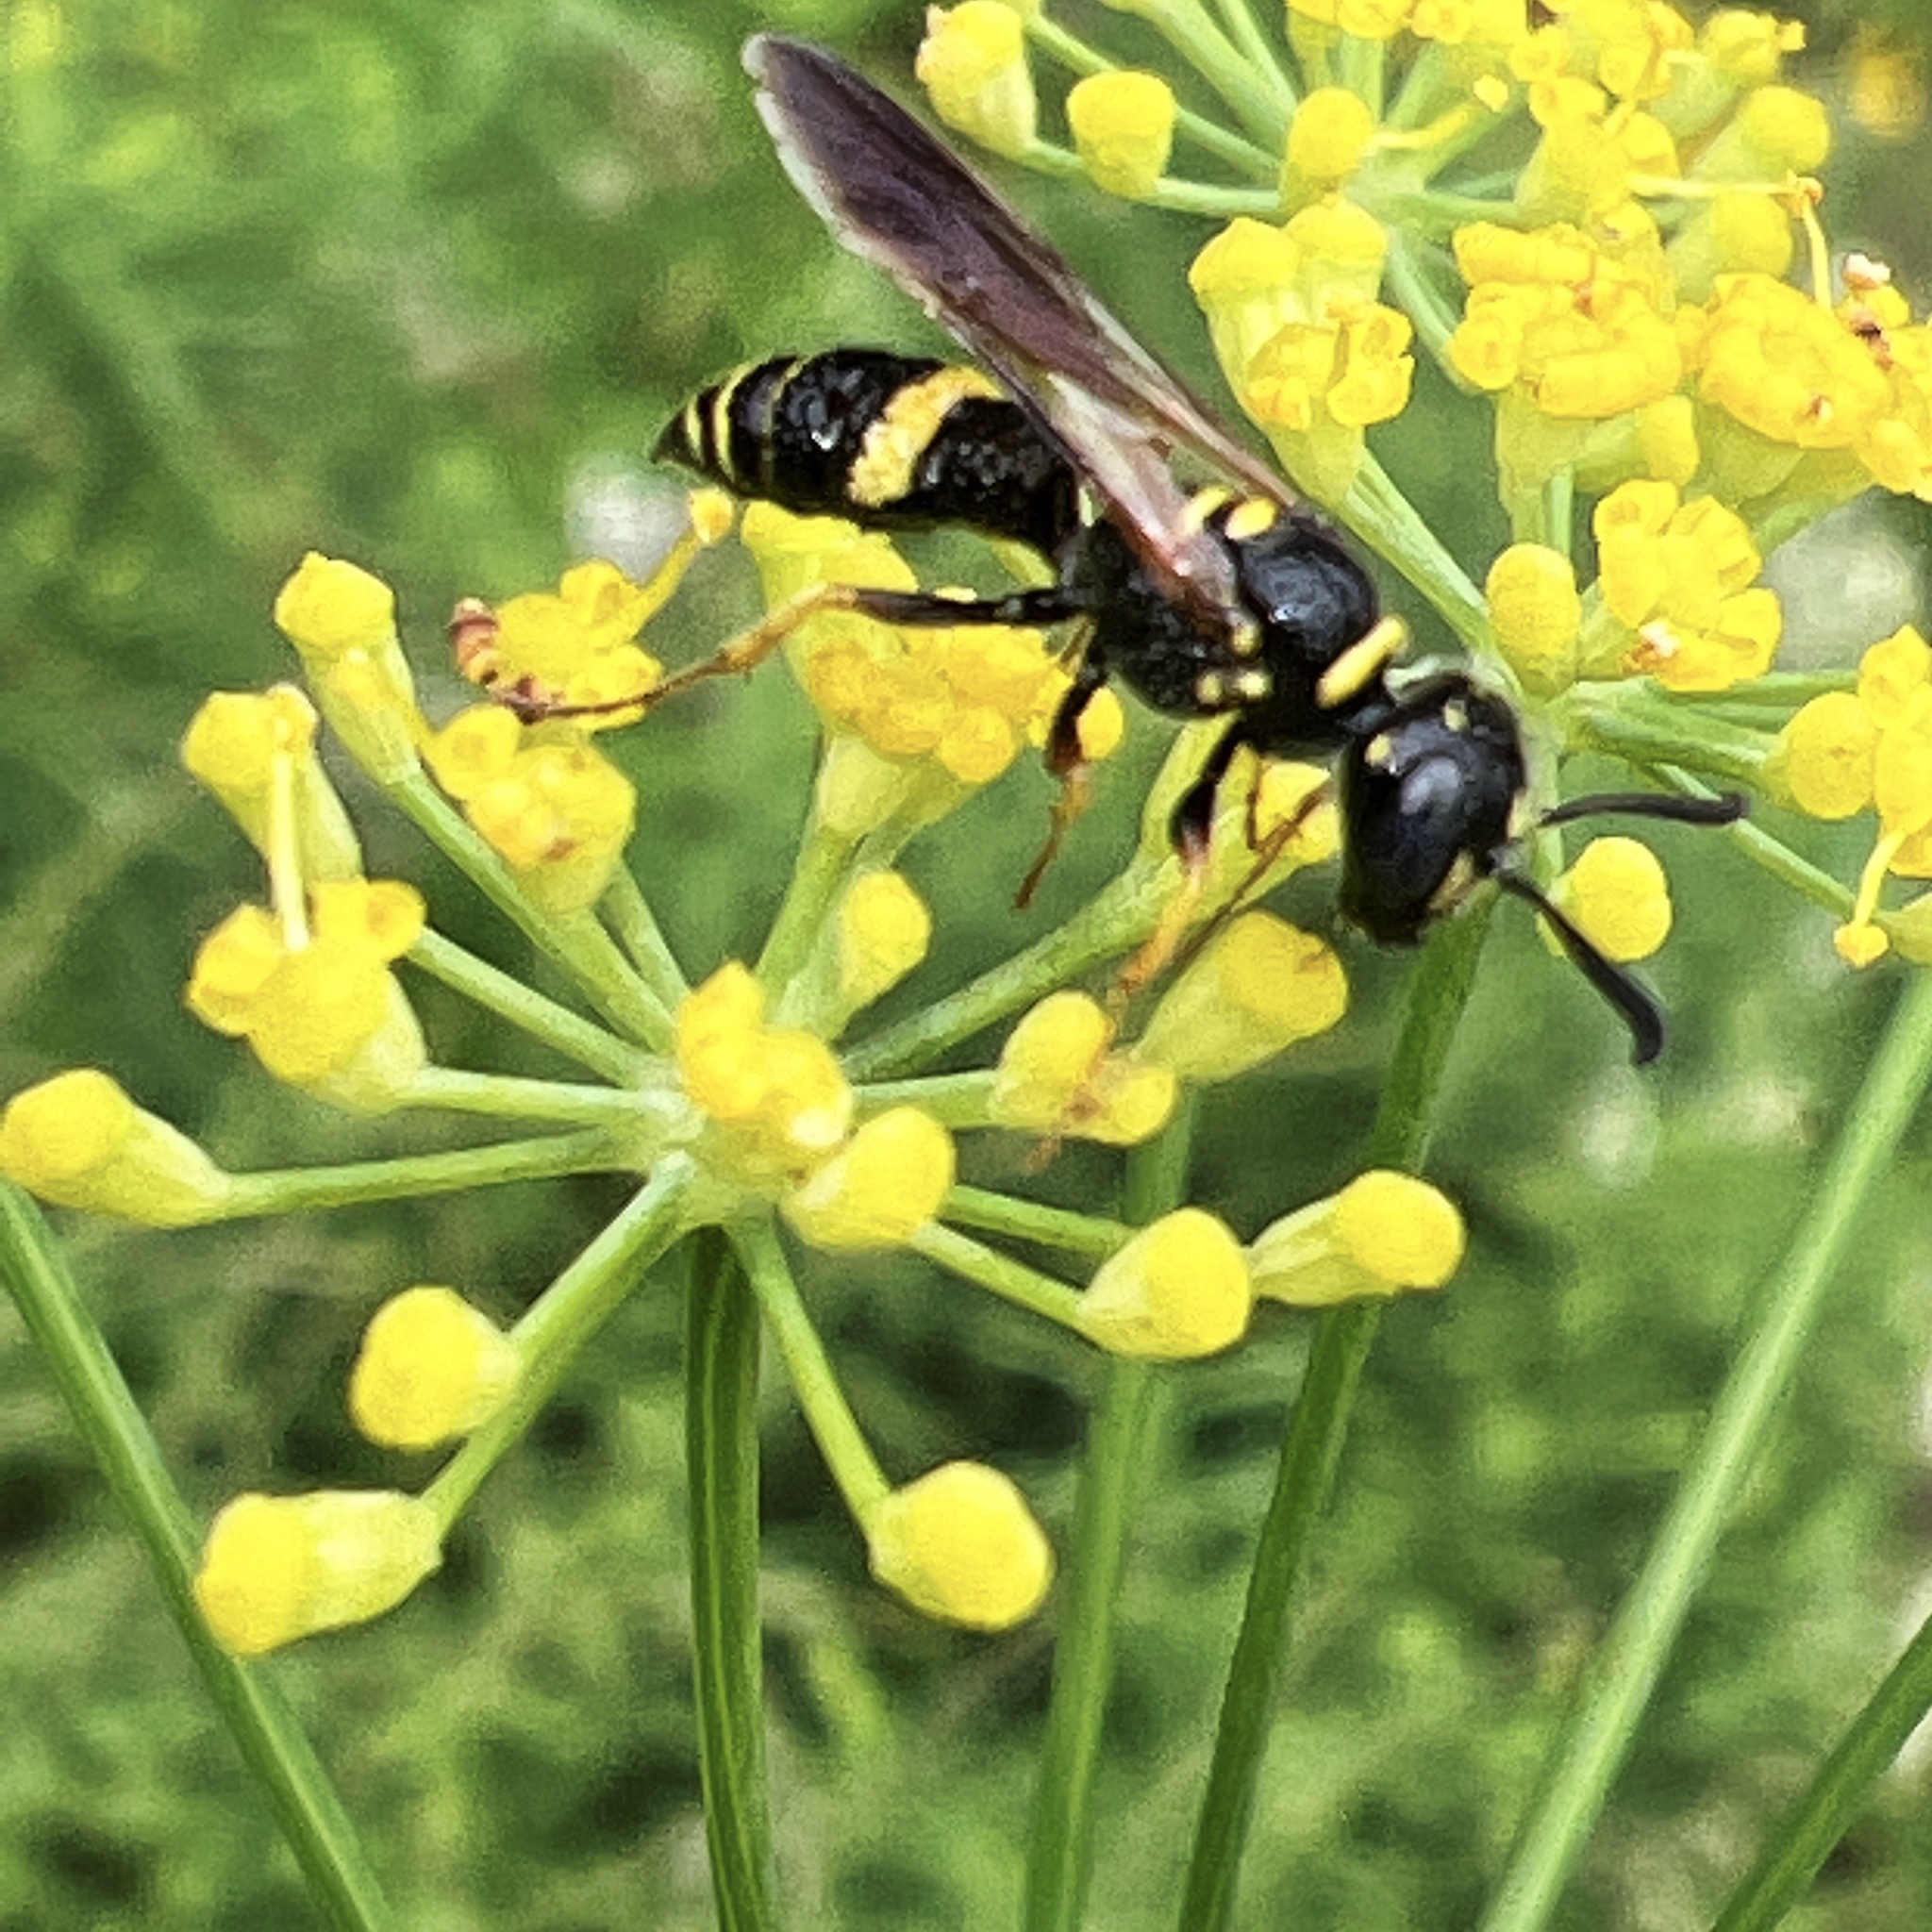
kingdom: Animalia
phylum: Arthropoda
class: Insecta
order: Hymenoptera
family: Crabronidae
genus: Philanthus
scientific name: Philanthus gibbosus
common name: Humped beewolf
